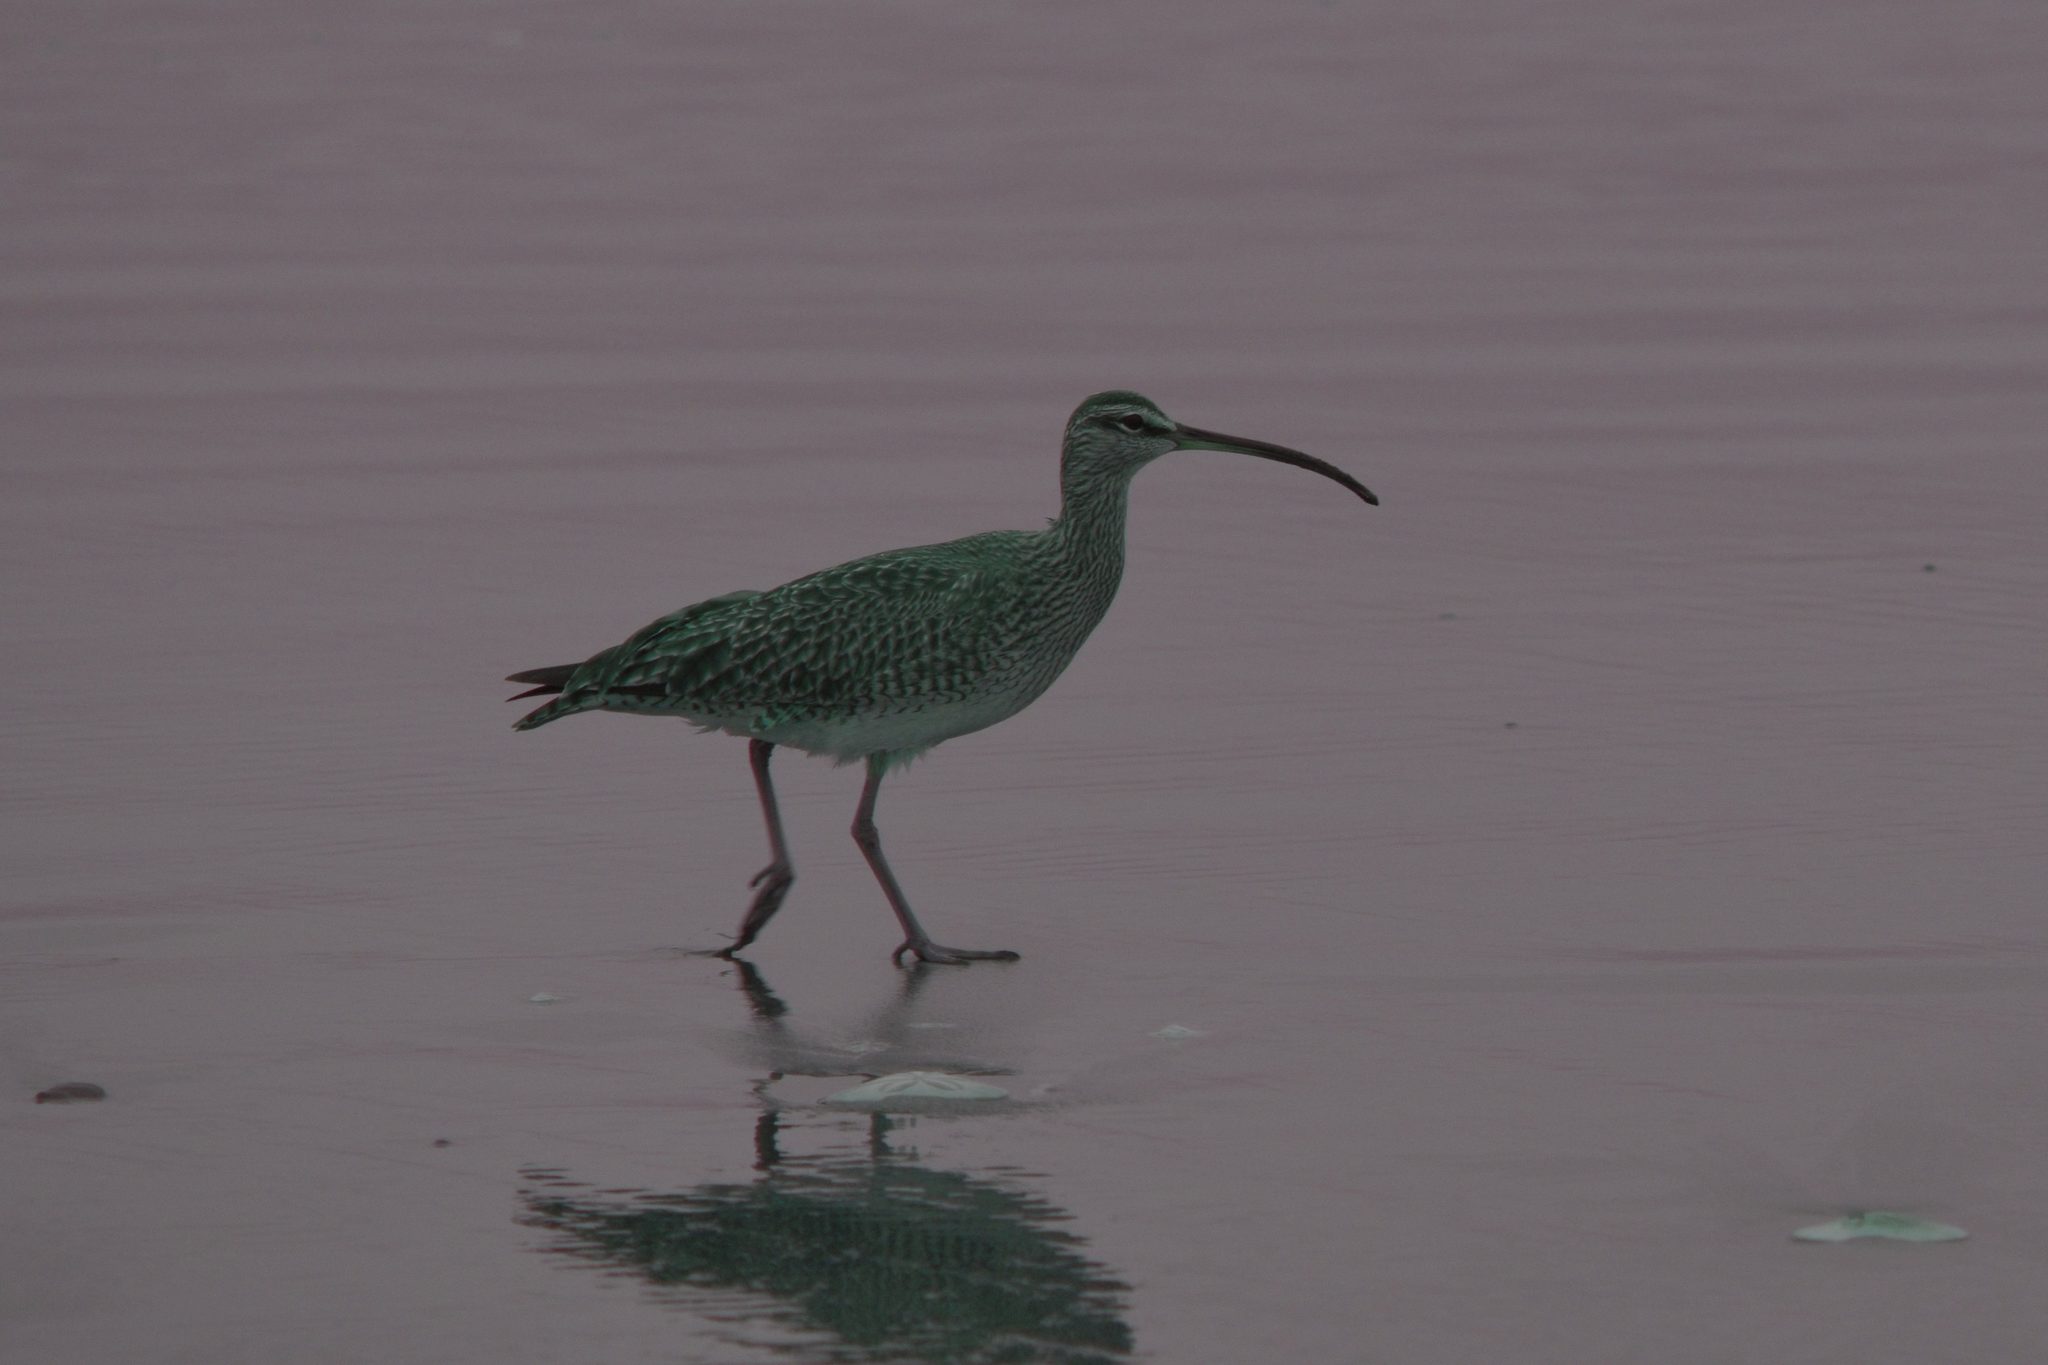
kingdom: Animalia
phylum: Chordata
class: Aves
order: Charadriiformes
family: Scolopacidae
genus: Numenius
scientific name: Numenius phaeopus
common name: Whimbrel
